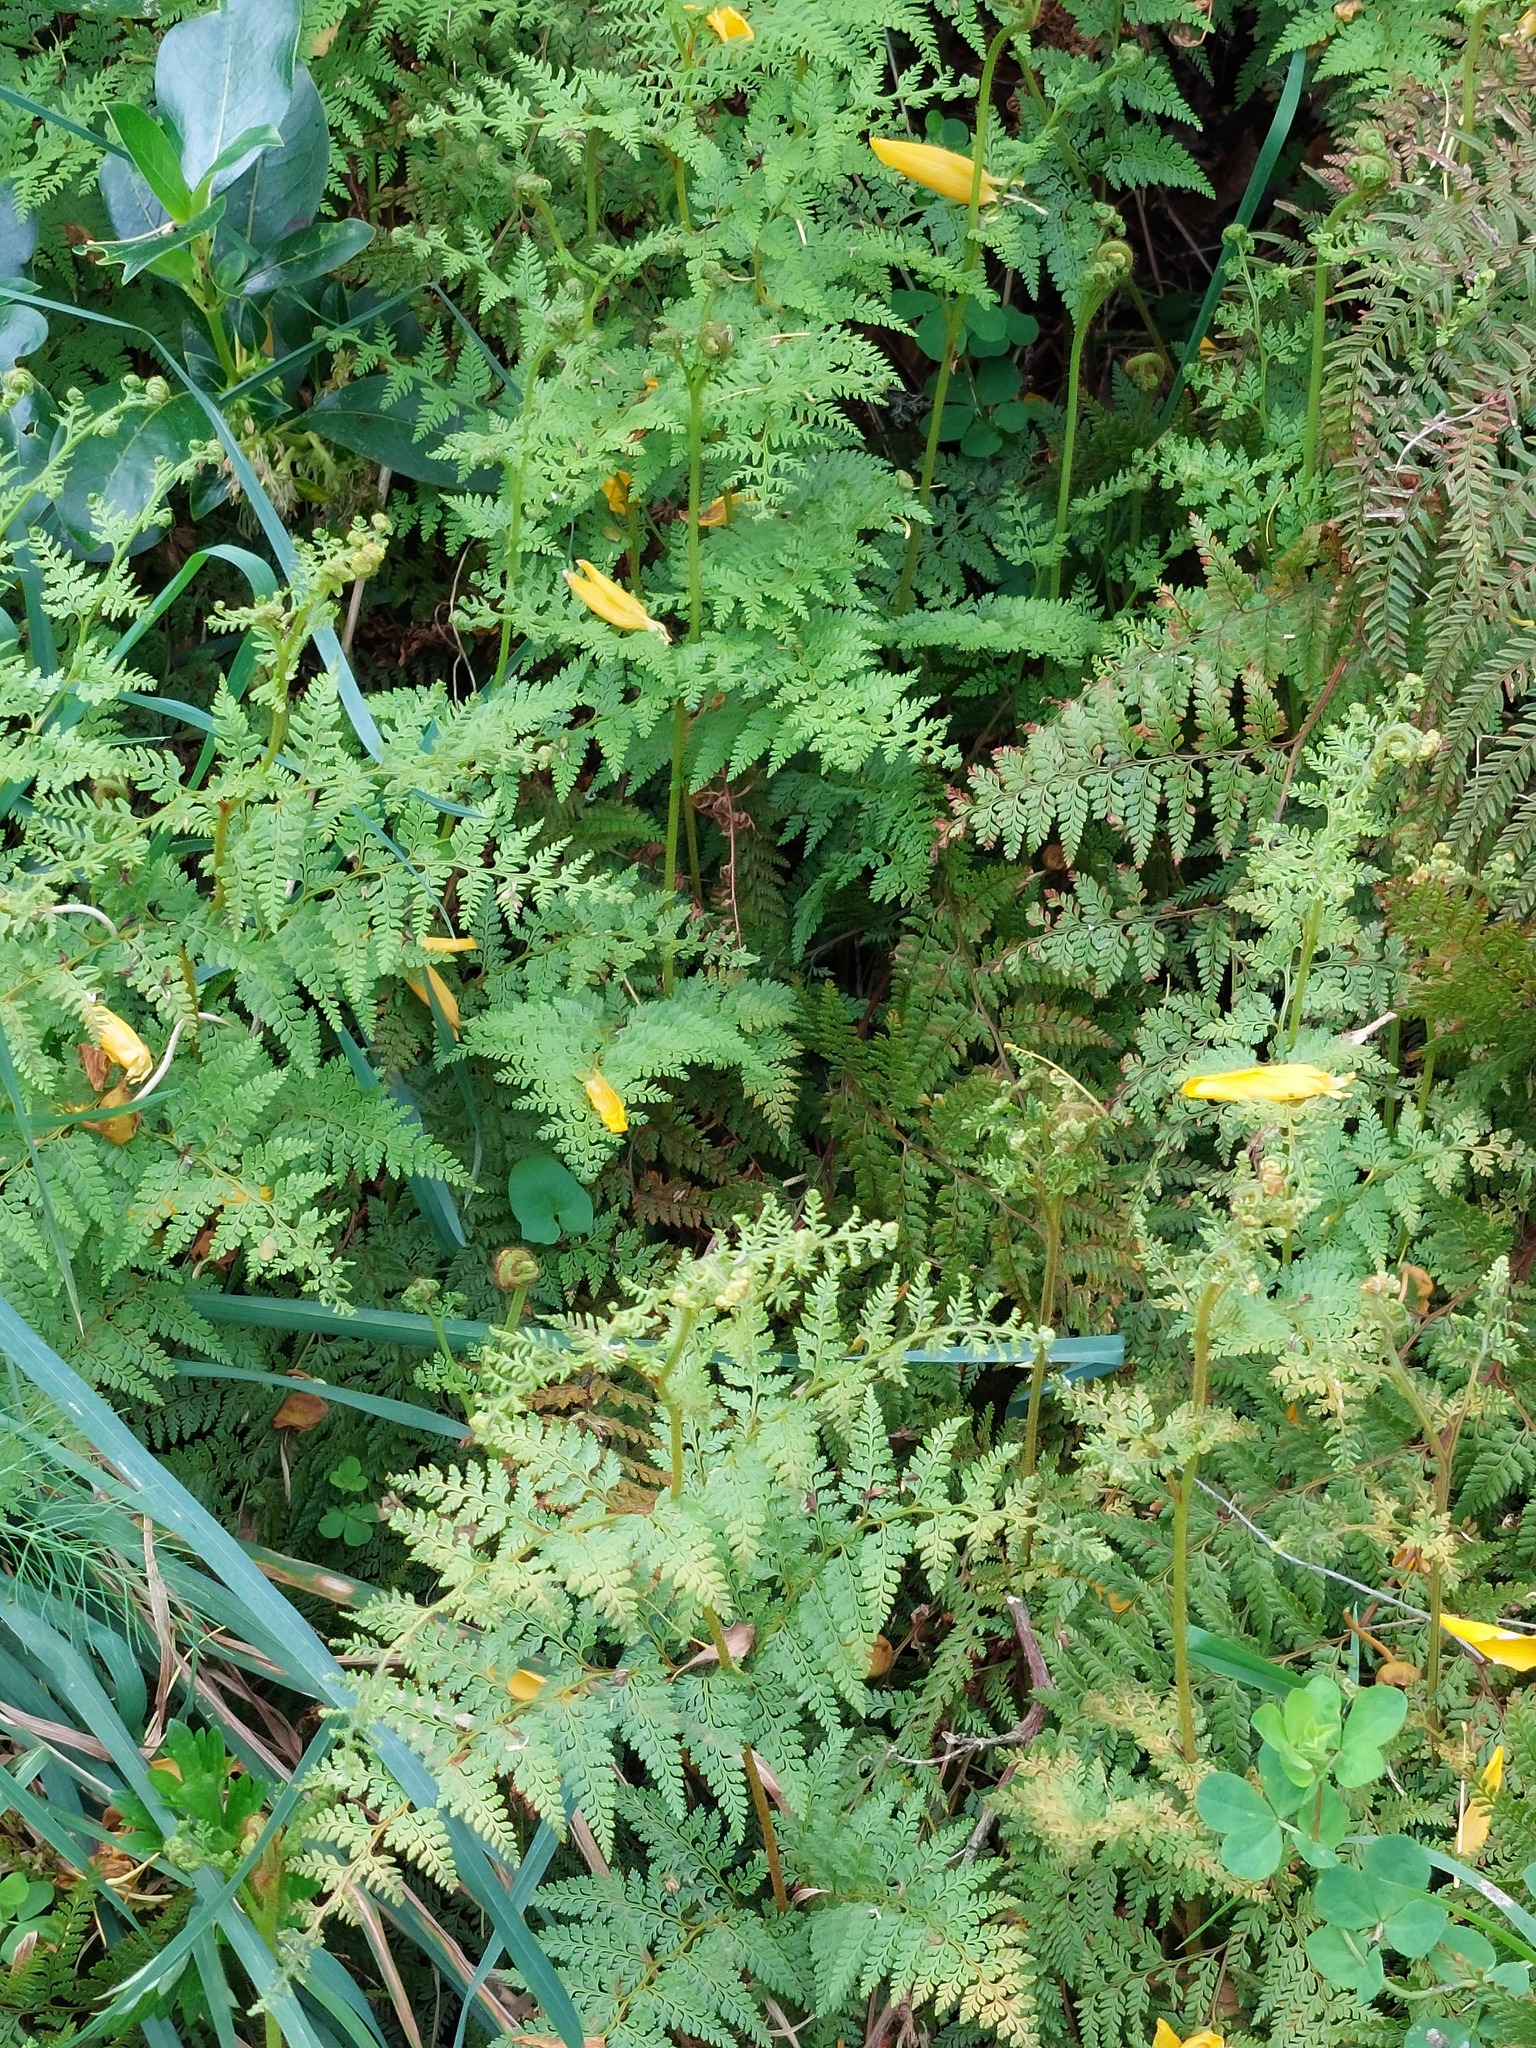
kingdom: Plantae
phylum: Tracheophyta
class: Polypodiopsida
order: Polypodiales
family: Dennstaedtiaceae
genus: Paesia
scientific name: Paesia scaberula
